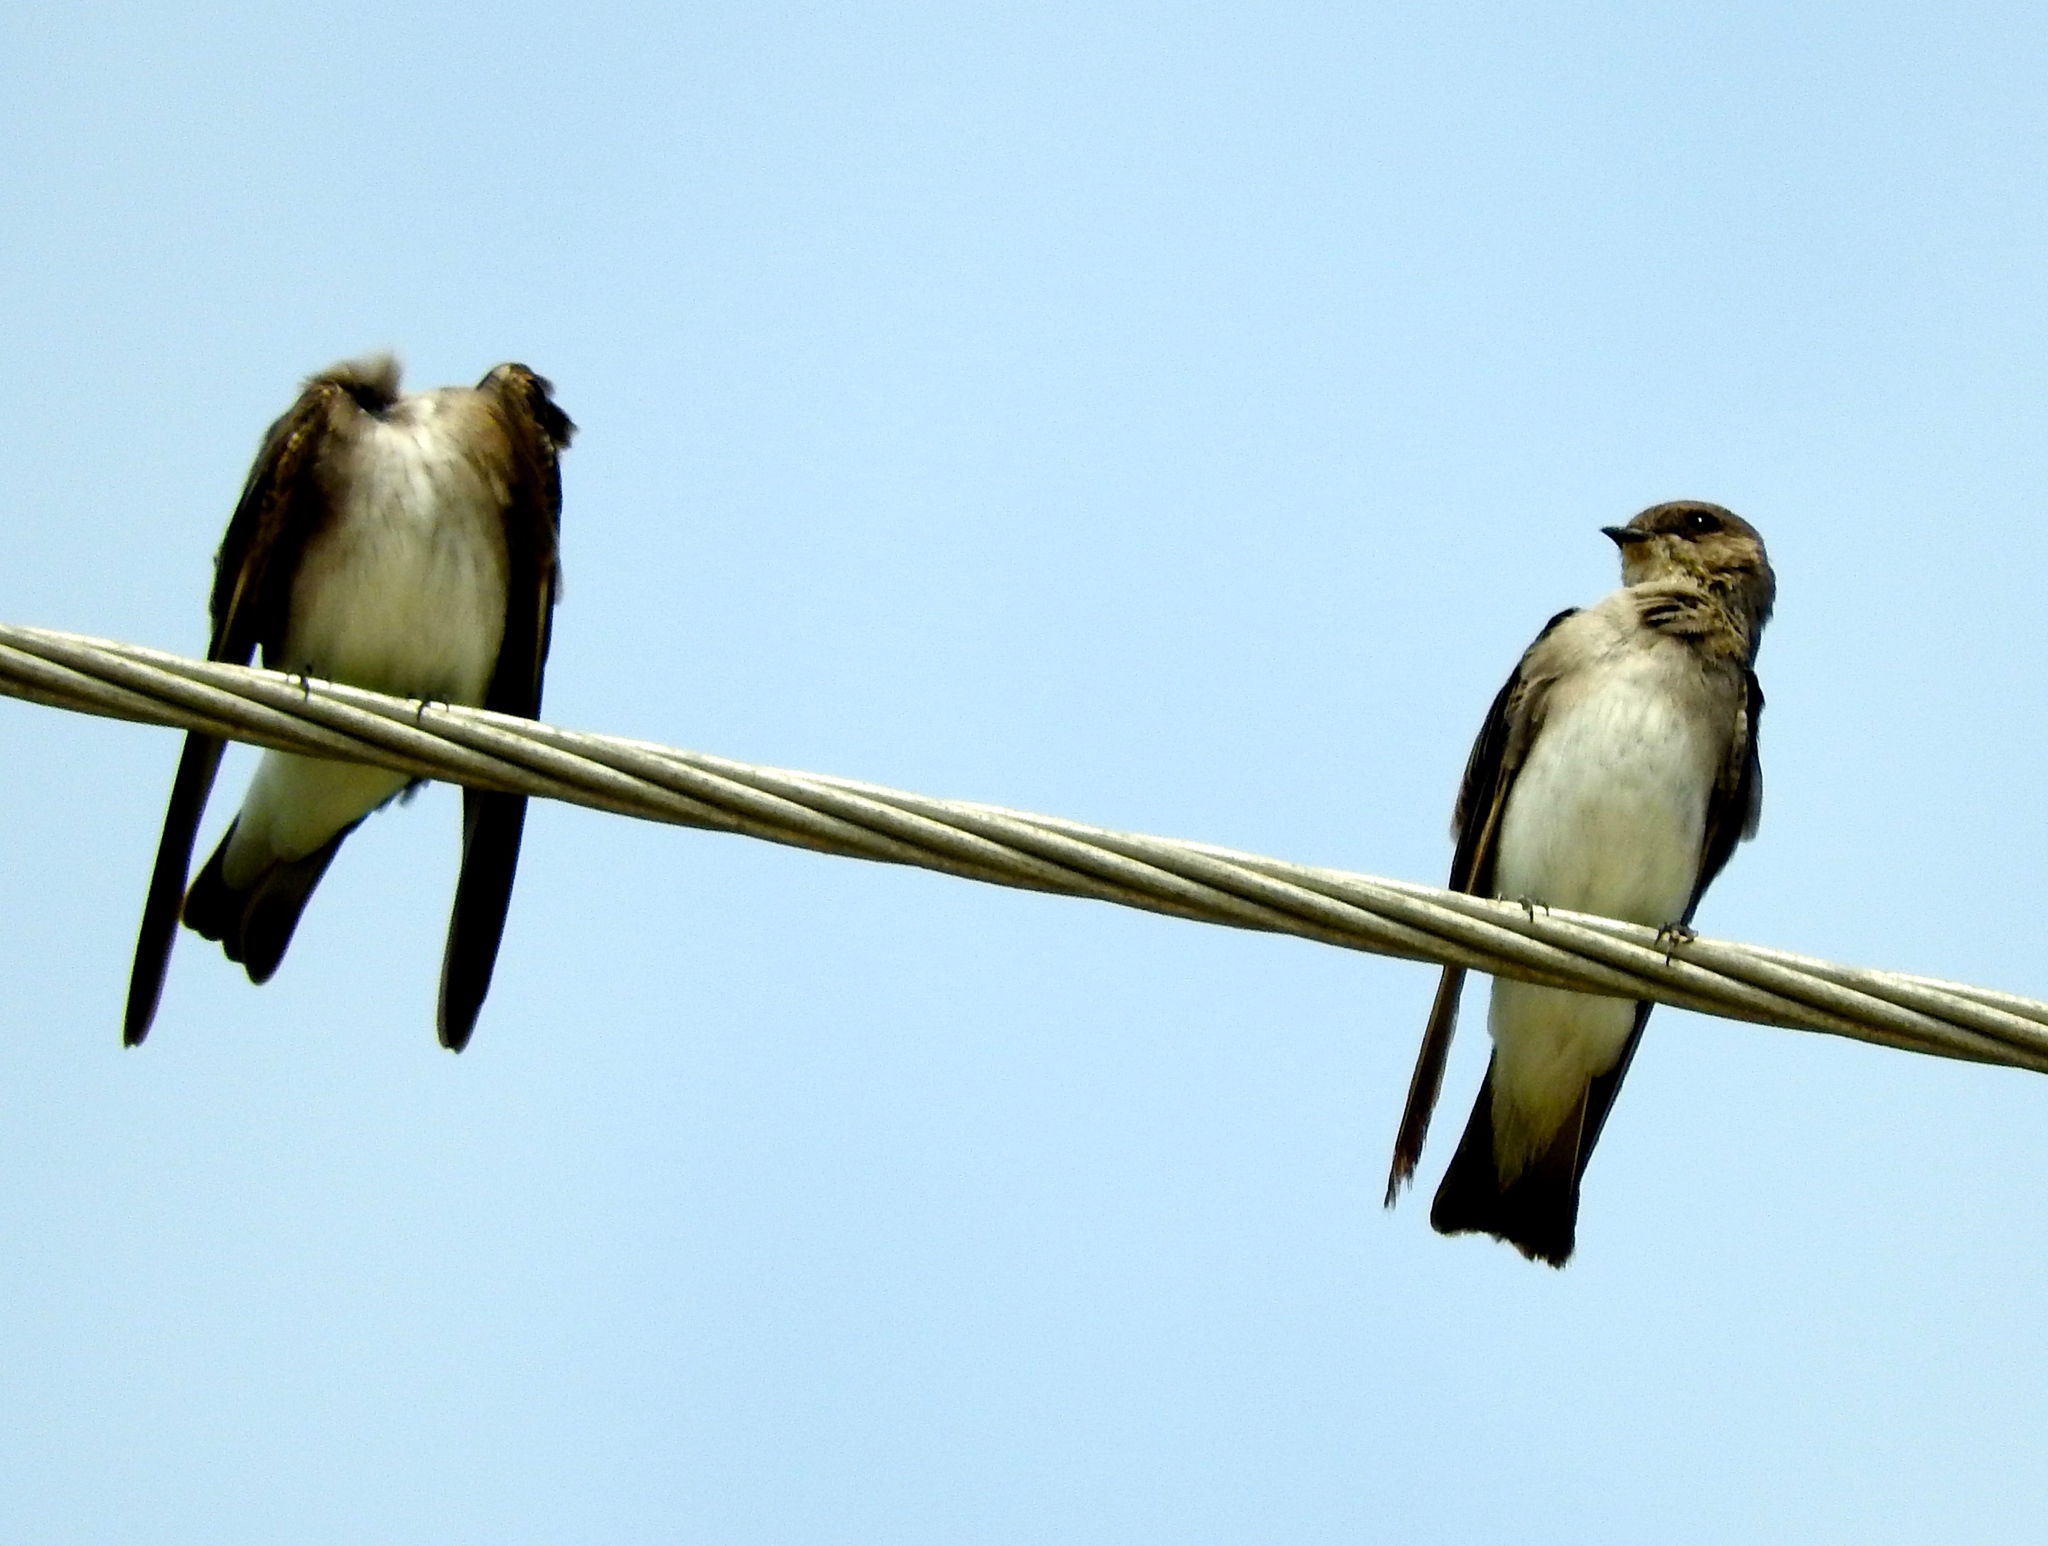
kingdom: Animalia
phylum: Chordata
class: Aves
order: Passeriformes
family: Hirundinidae
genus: Stelgidopteryx
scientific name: Stelgidopteryx serripennis
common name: Northern rough-winged swallow
